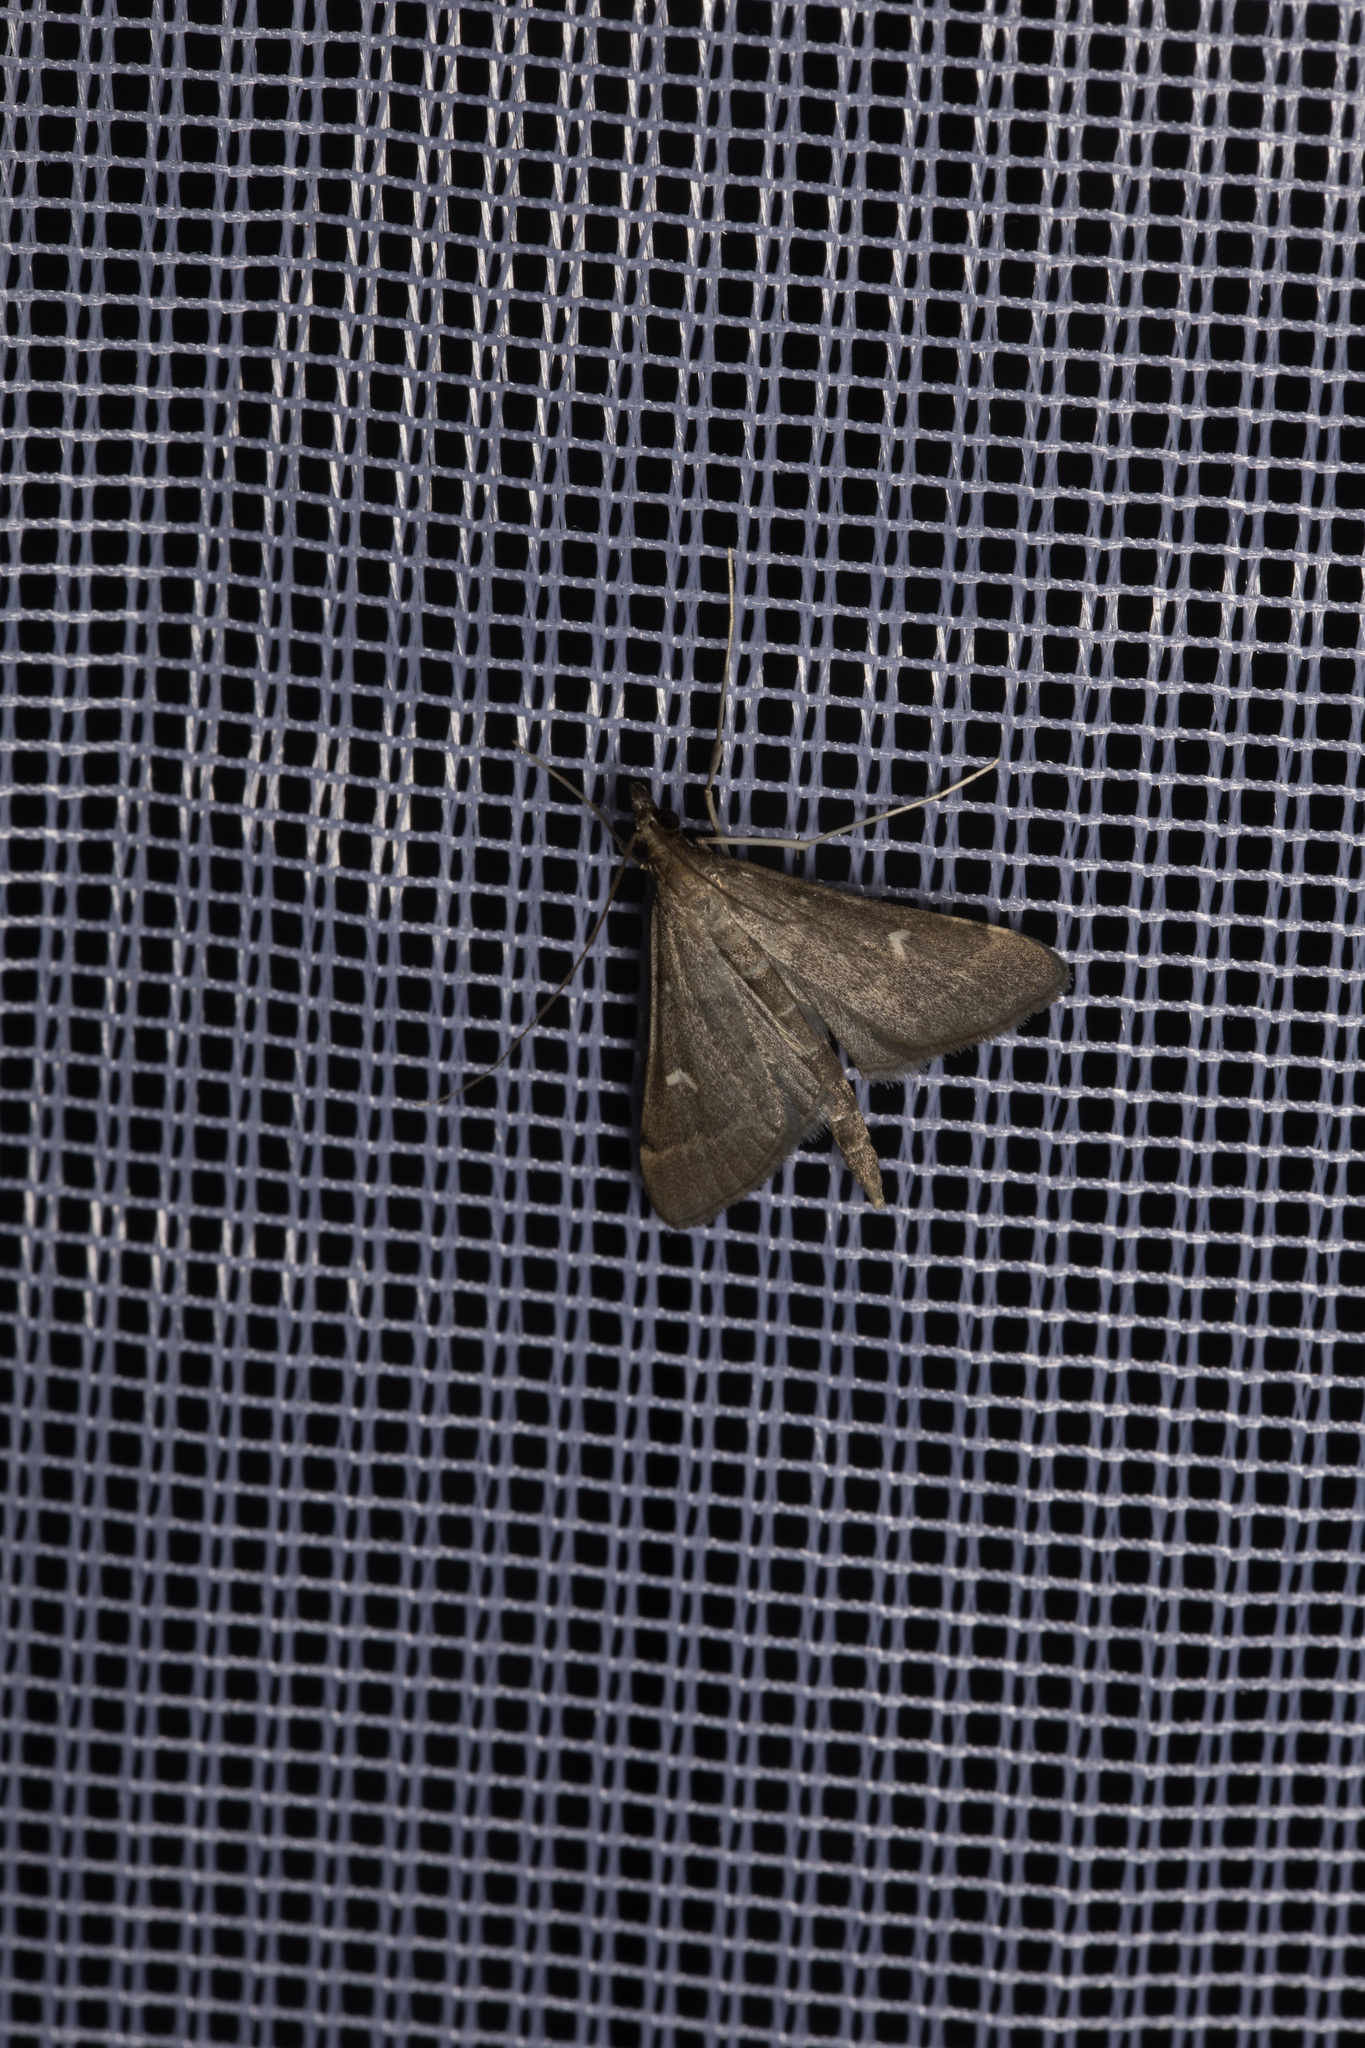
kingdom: Animalia
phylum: Arthropoda
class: Insecta
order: Lepidoptera
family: Crambidae
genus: Stenia
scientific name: Stenia Dolicharthria punctalis
